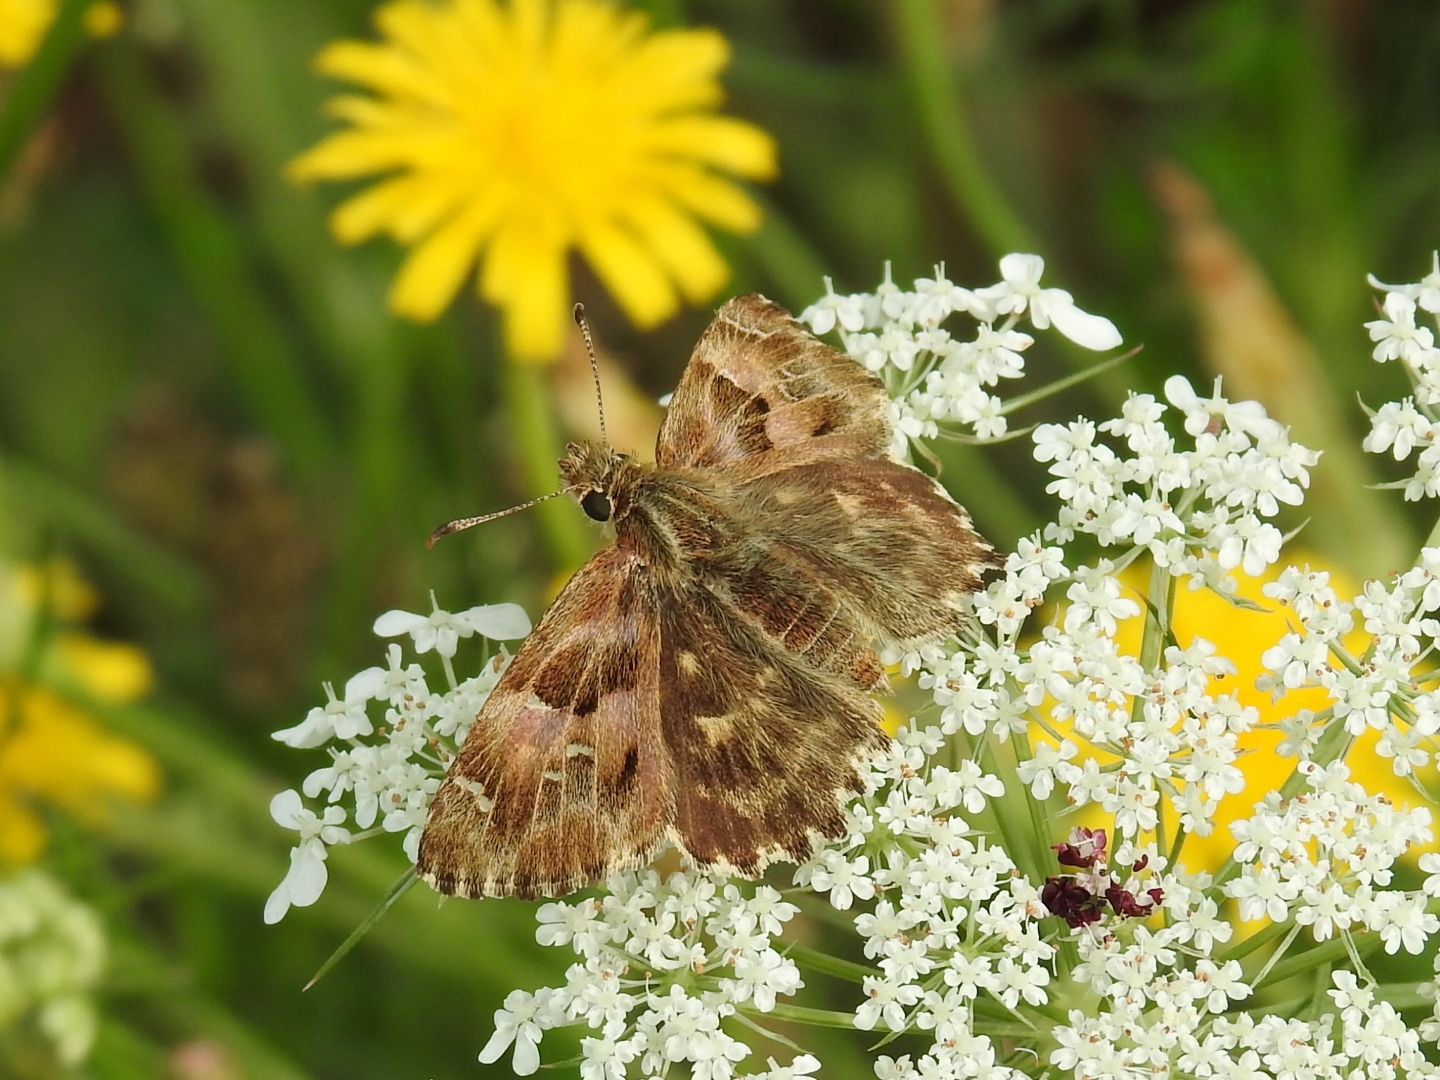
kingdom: Animalia
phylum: Arthropoda
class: Insecta
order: Lepidoptera
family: Hesperiidae
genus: Carcharodus
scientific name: Carcharodus alceae
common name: Mallow skipper
